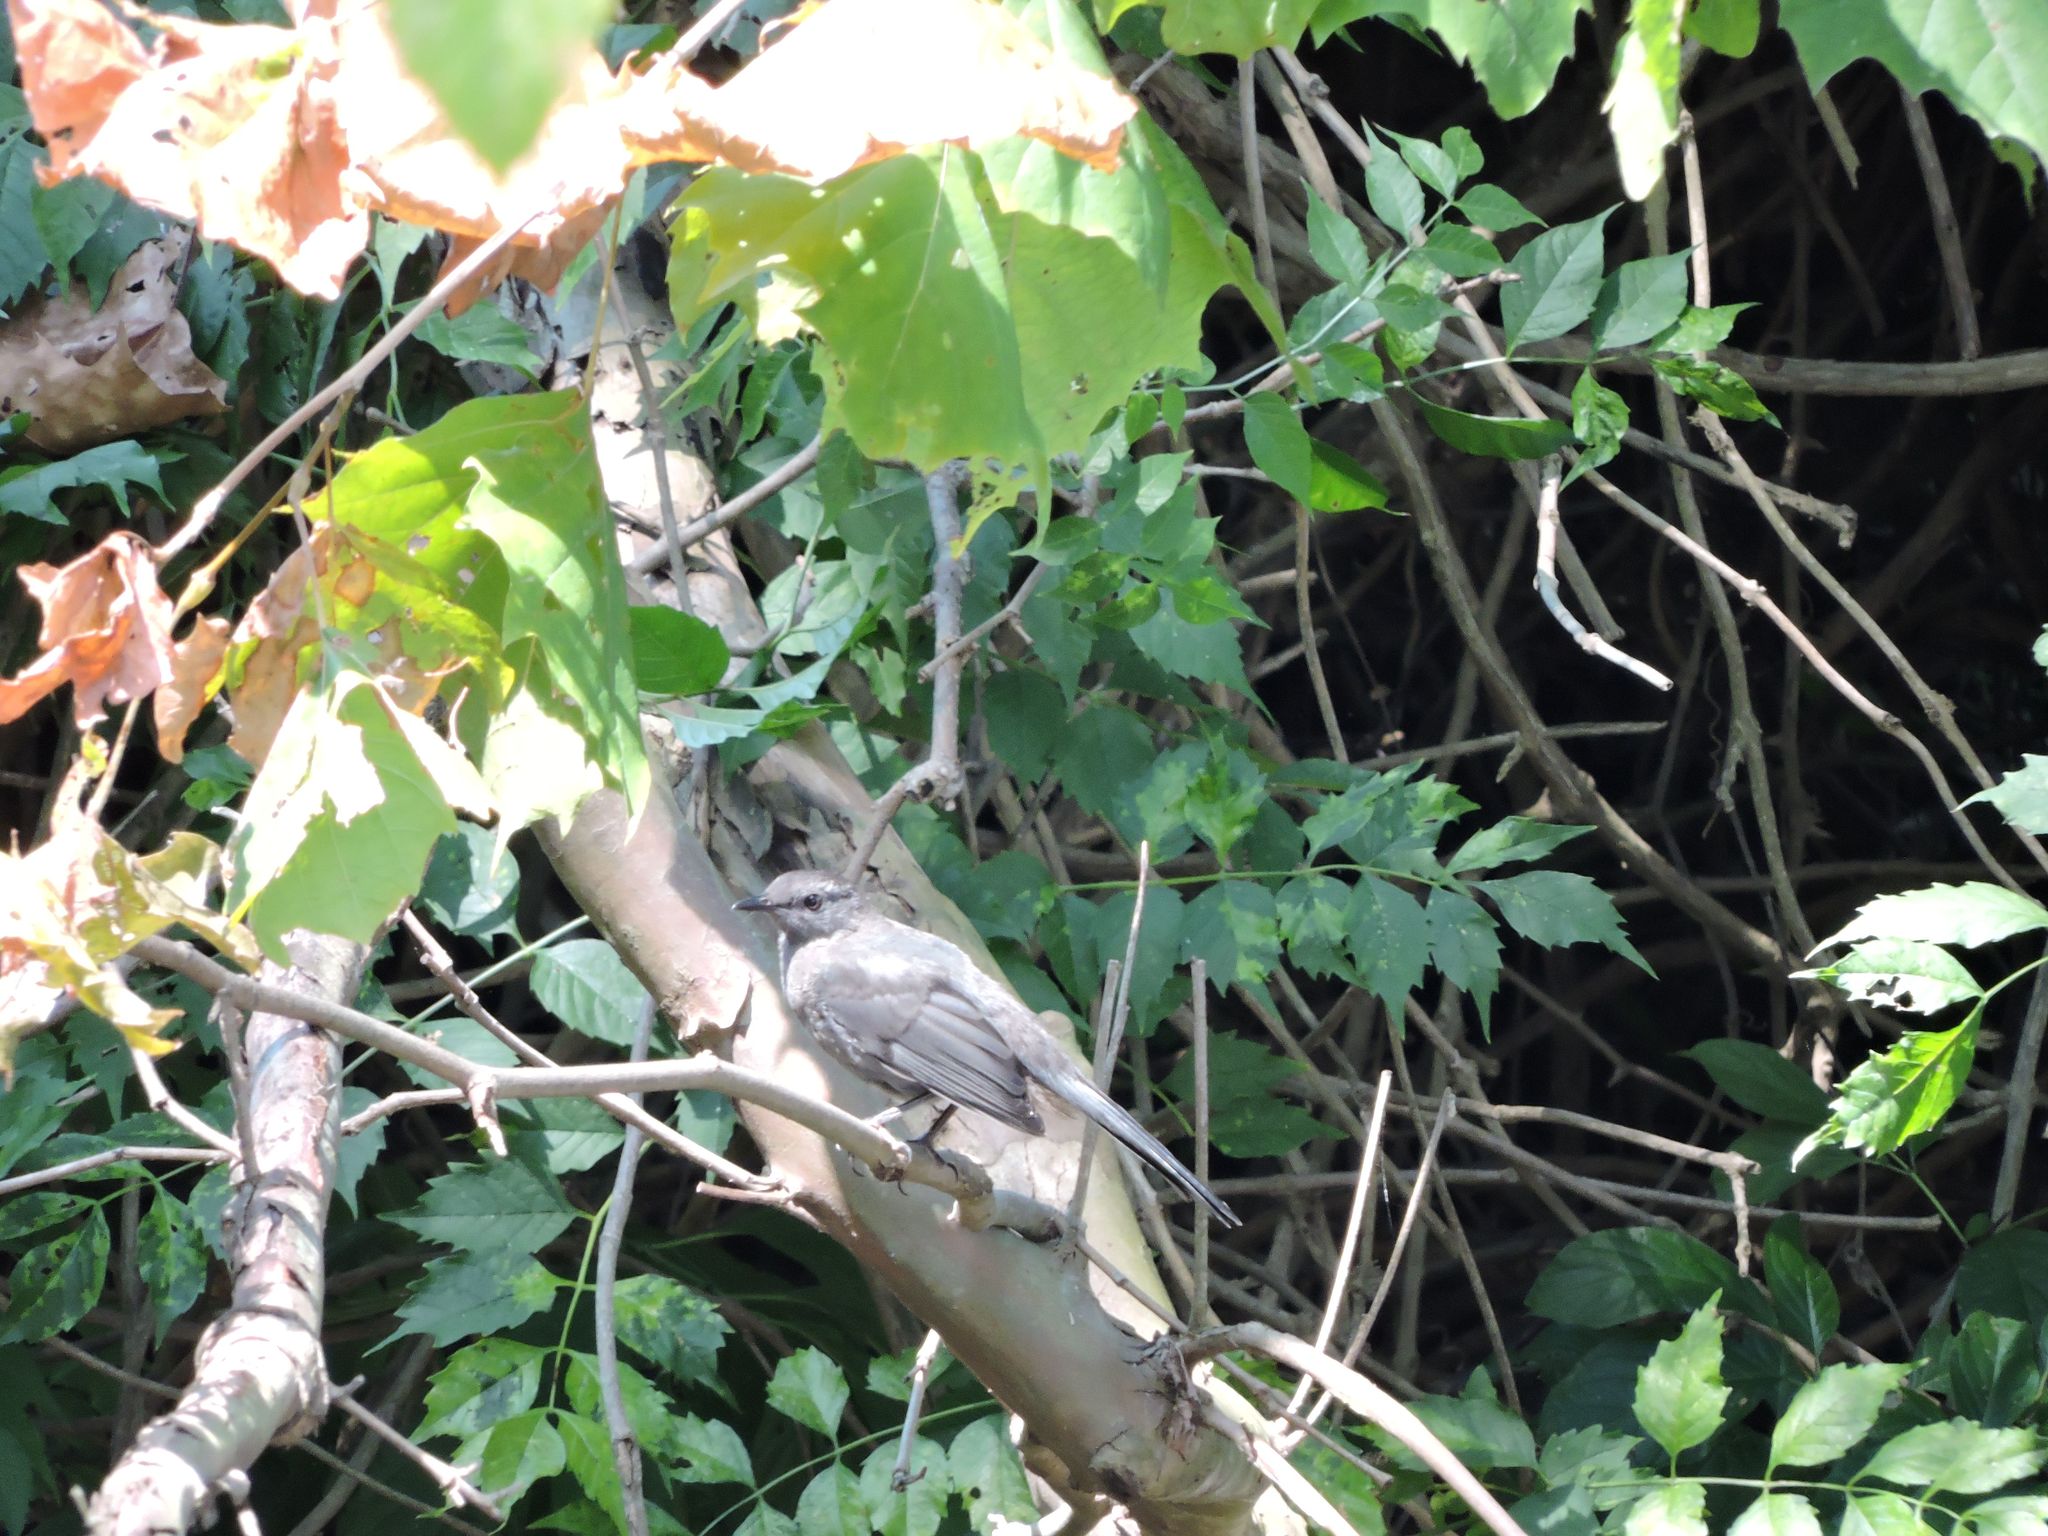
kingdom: Animalia
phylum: Chordata
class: Aves
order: Passeriformes
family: Tyrannidae
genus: Tyrannus
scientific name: Tyrannus tyrannus
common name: Eastern kingbird
